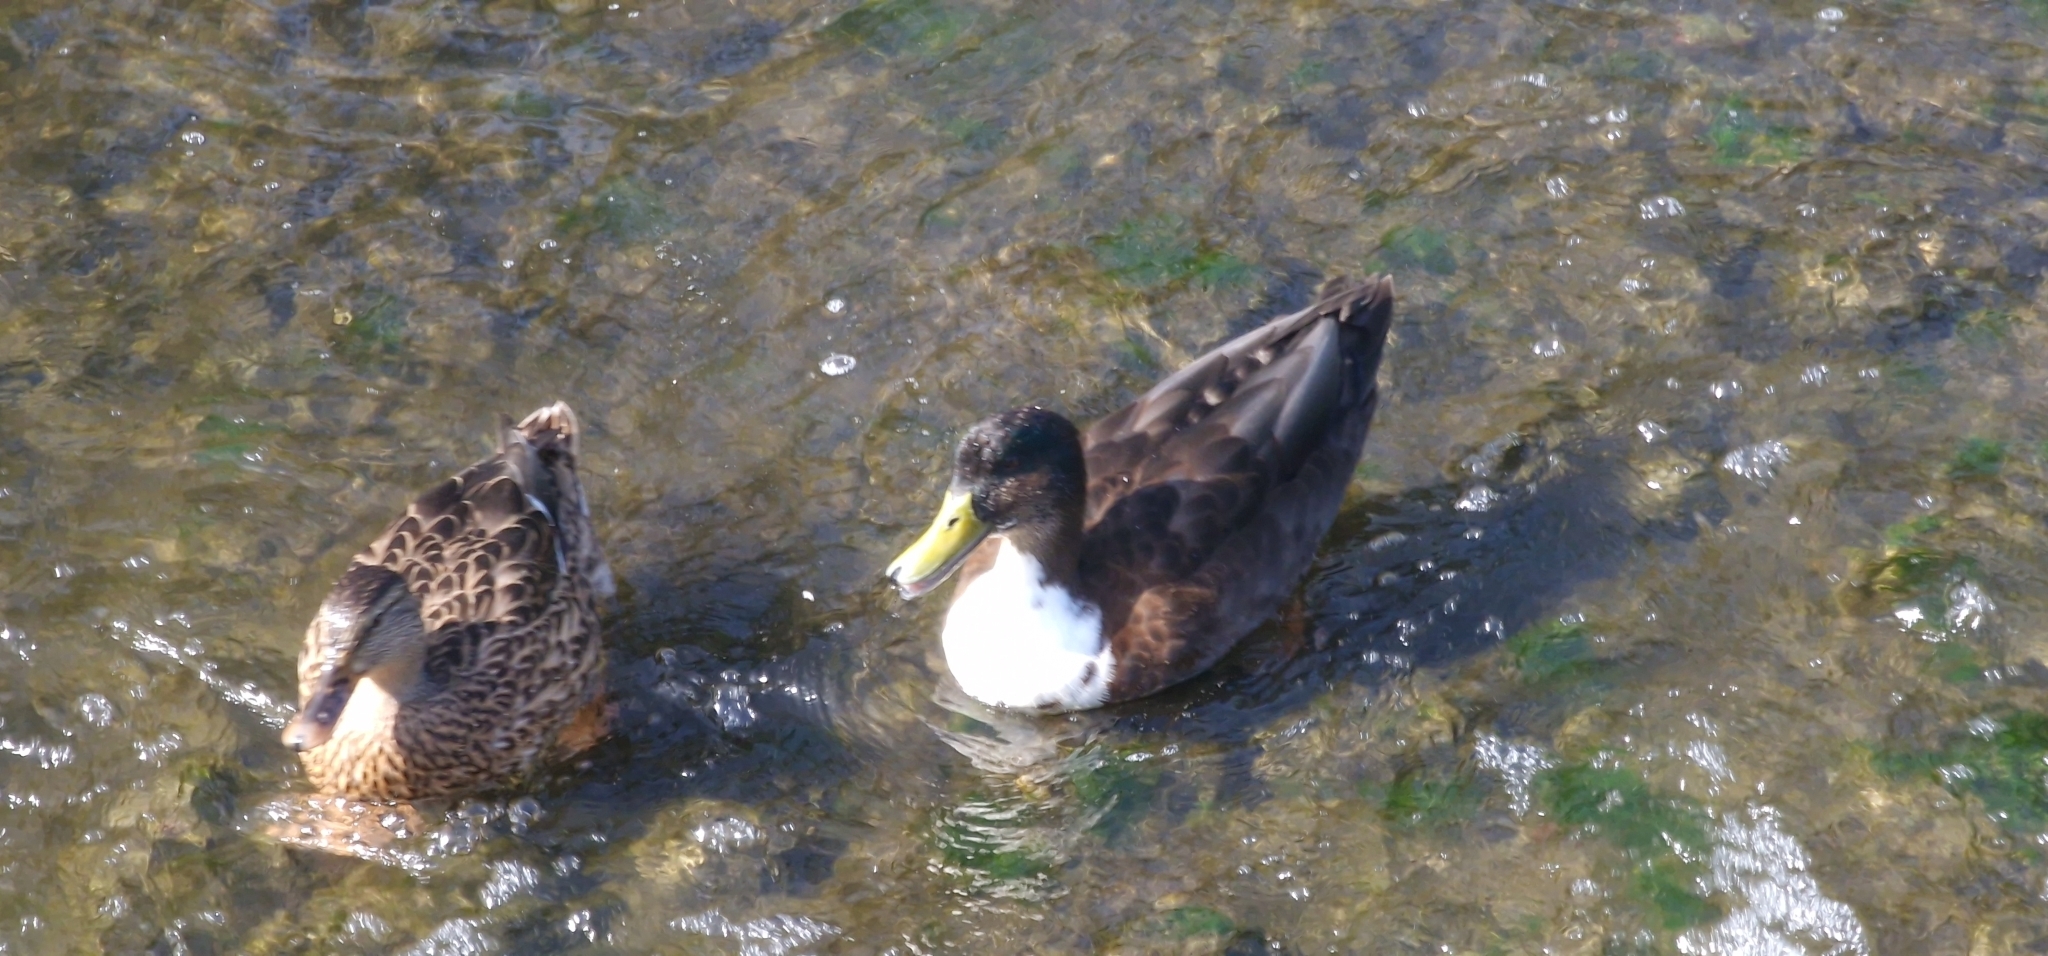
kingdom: Animalia
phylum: Chordata
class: Aves
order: Anseriformes
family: Anatidae
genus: Anas
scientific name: Anas platyrhynchos
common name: Mallard
